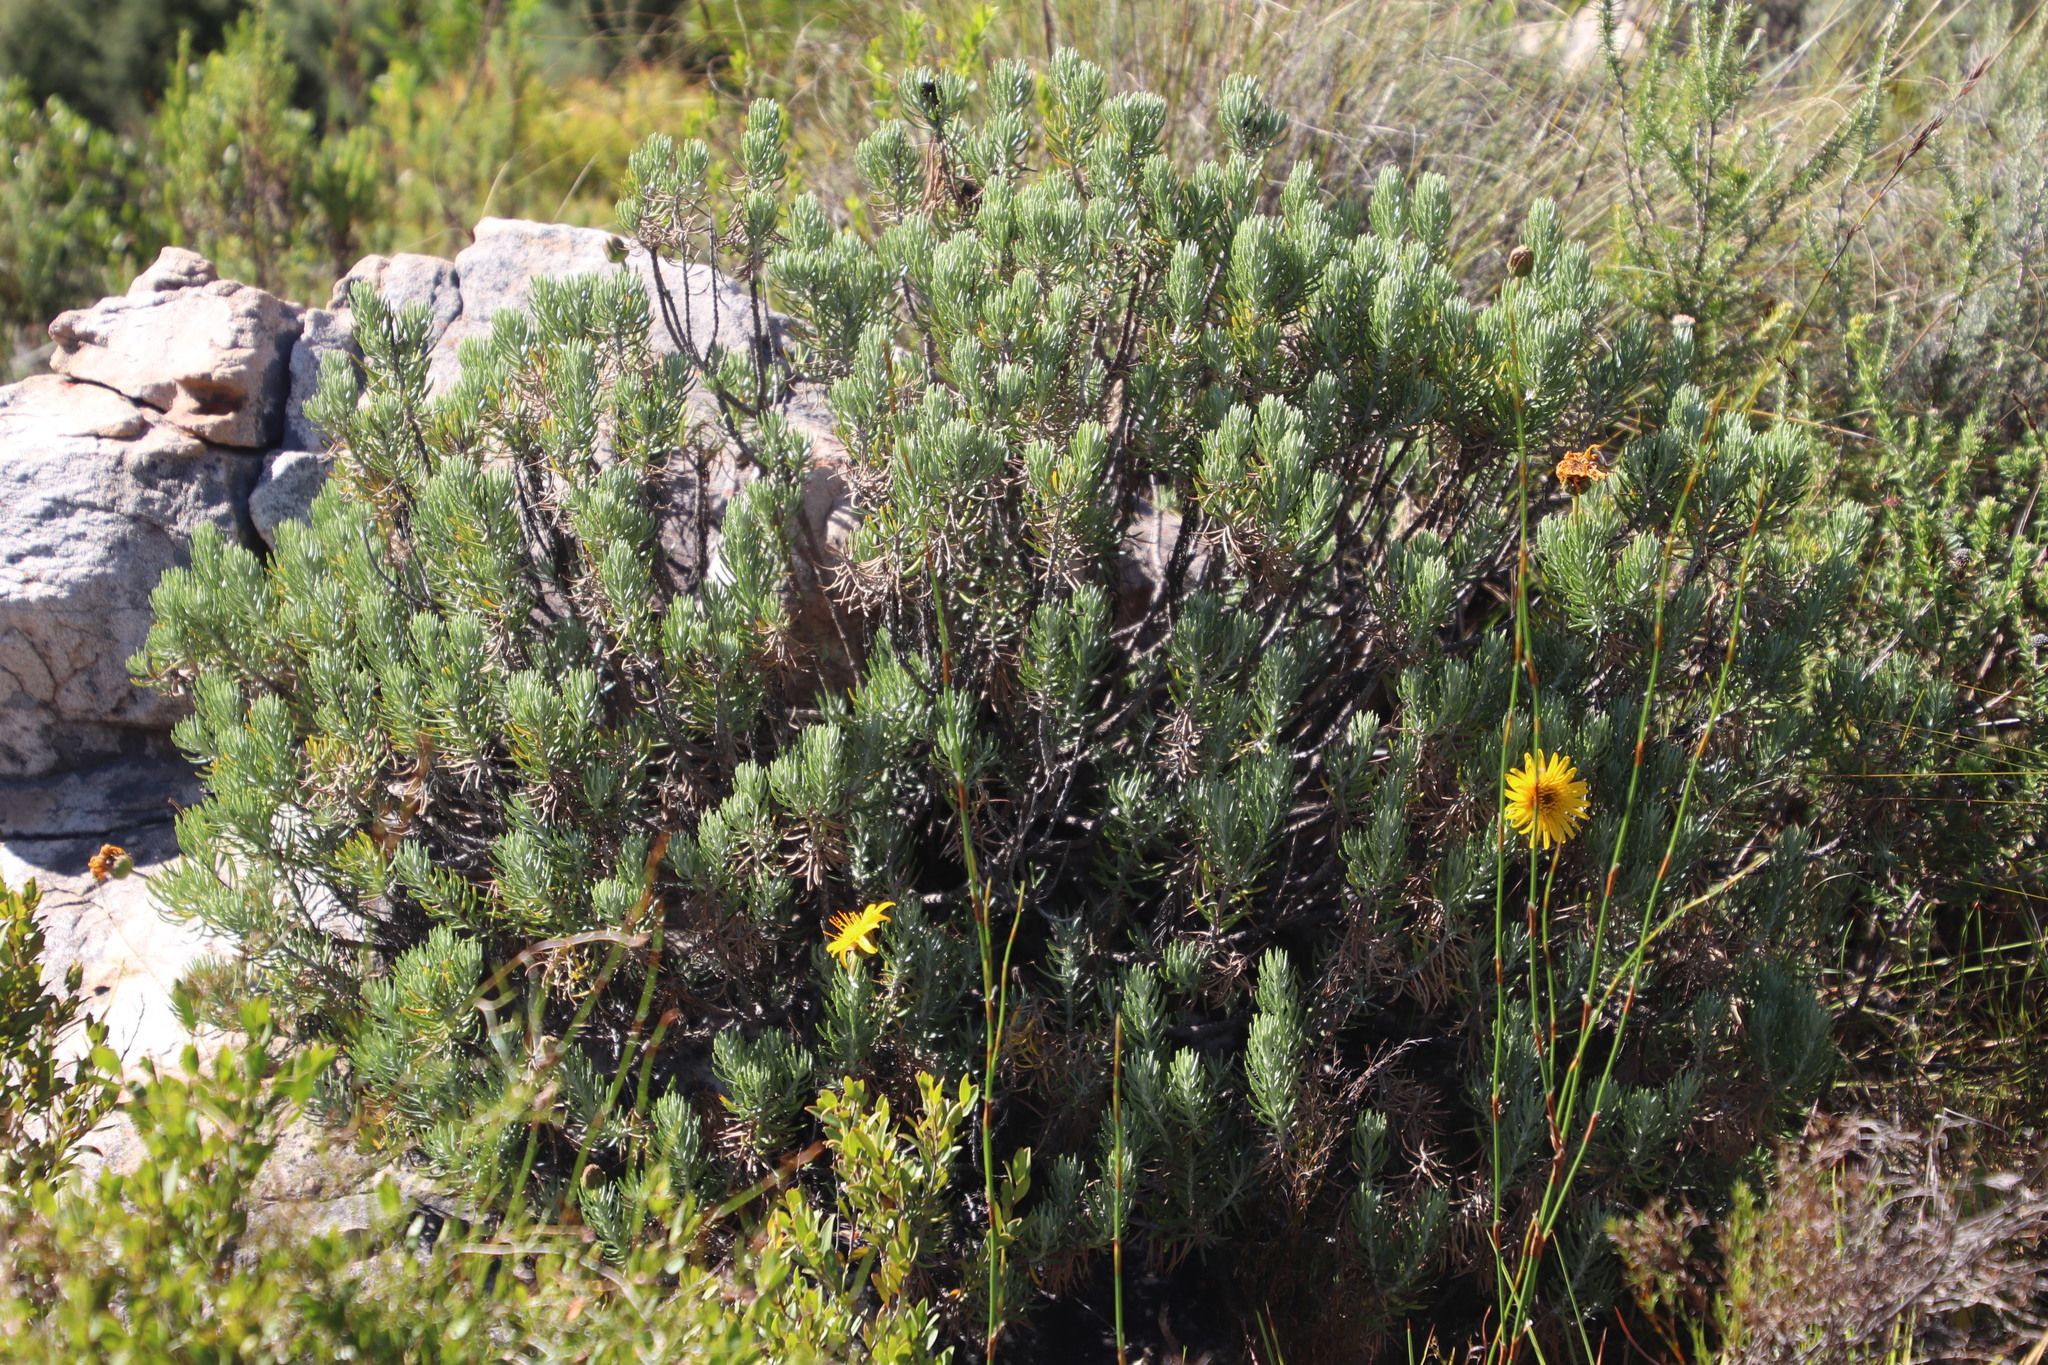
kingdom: Plantae
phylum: Tracheophyta
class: Magnoliopsida
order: Asterales
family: Asteraceae
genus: Heterolepis
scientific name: Heterolepis aliena
